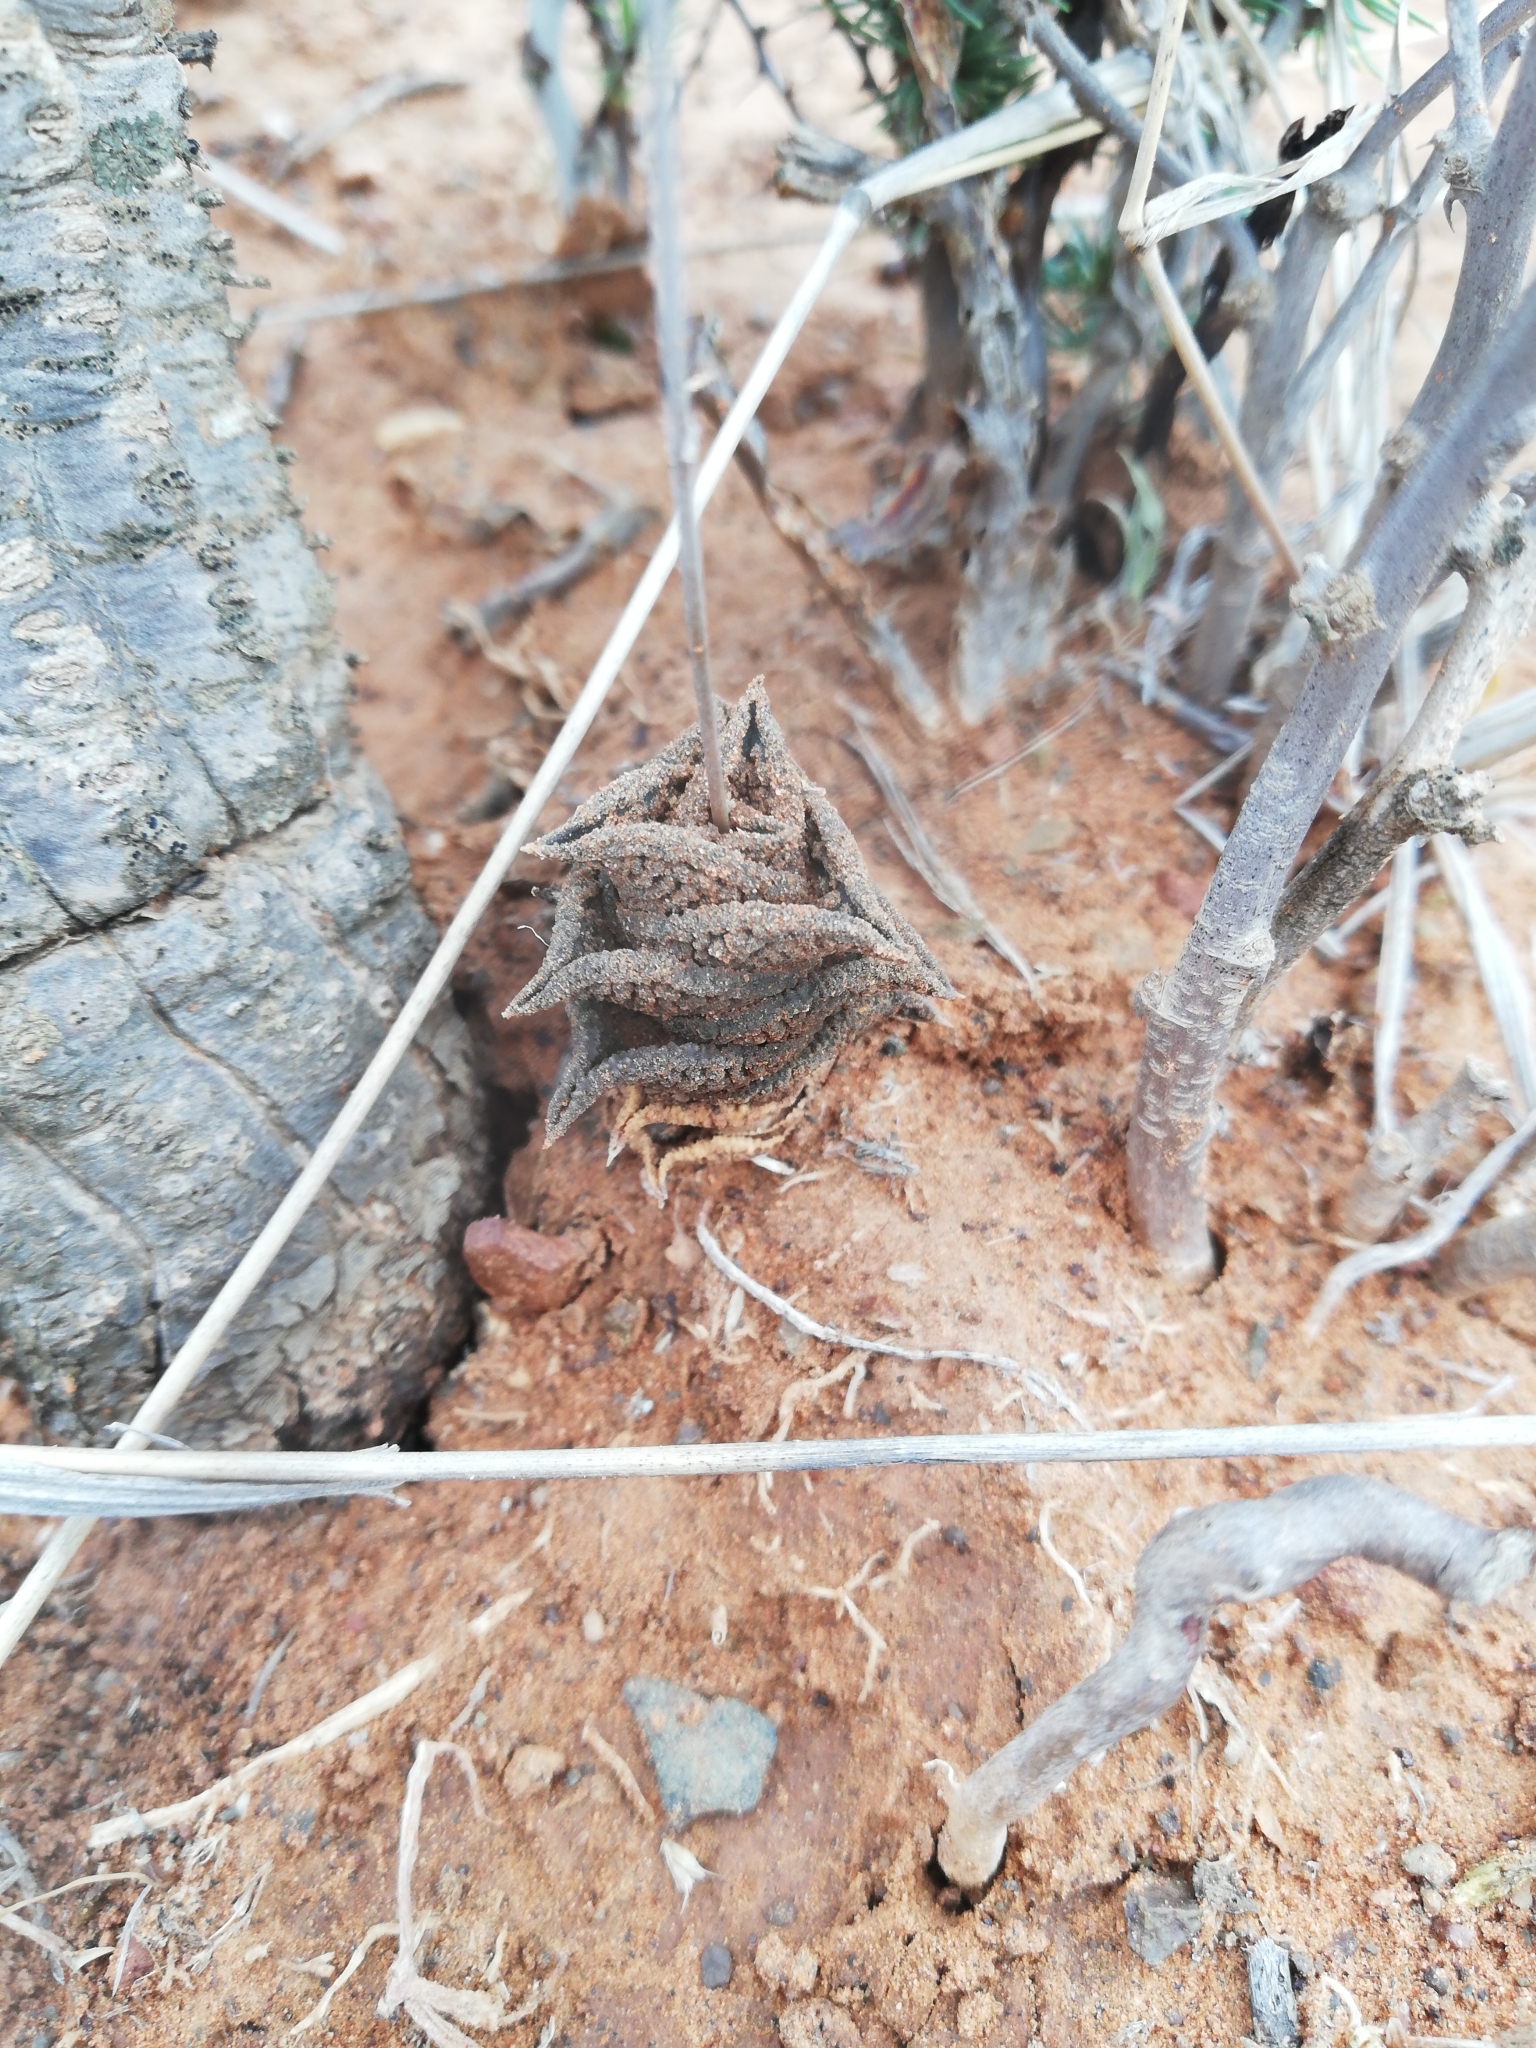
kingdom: Plantae
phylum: Tracheophyta
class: Liliopsida
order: Asparagales
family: Asphodelaceae
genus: Haworthiopsis
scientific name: Haworthiopsis nigra
